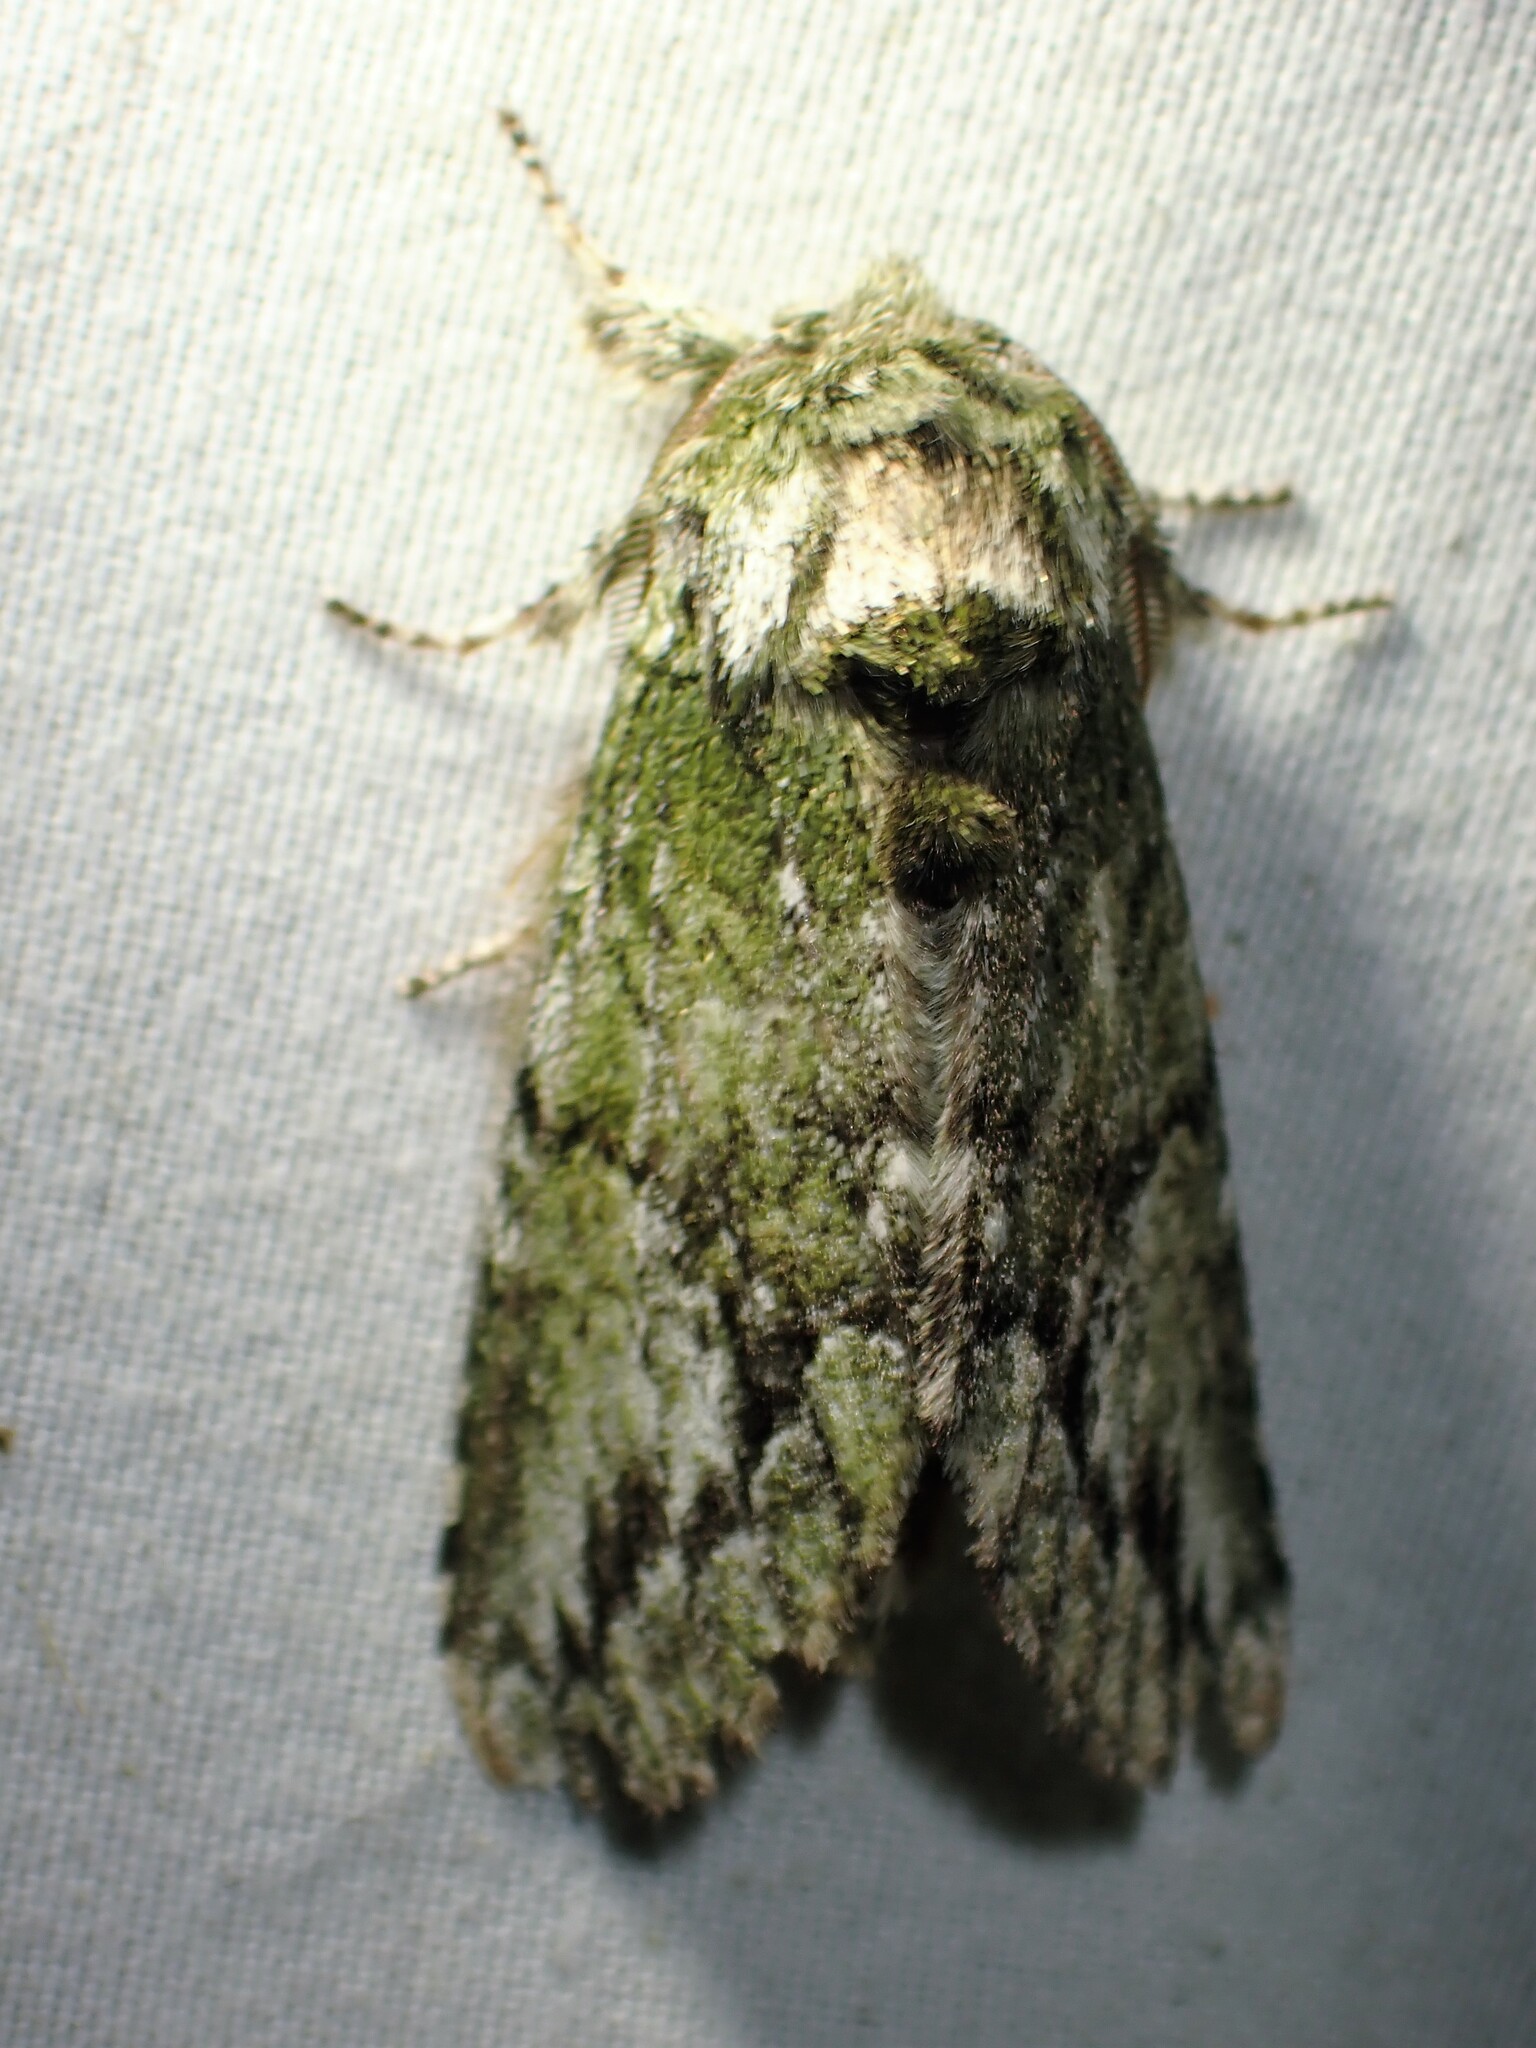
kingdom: Animalia
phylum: Arthropoda
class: Insecta
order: Lepidoptera
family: Notodontidae
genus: Heterocampa
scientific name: Heterocampa
